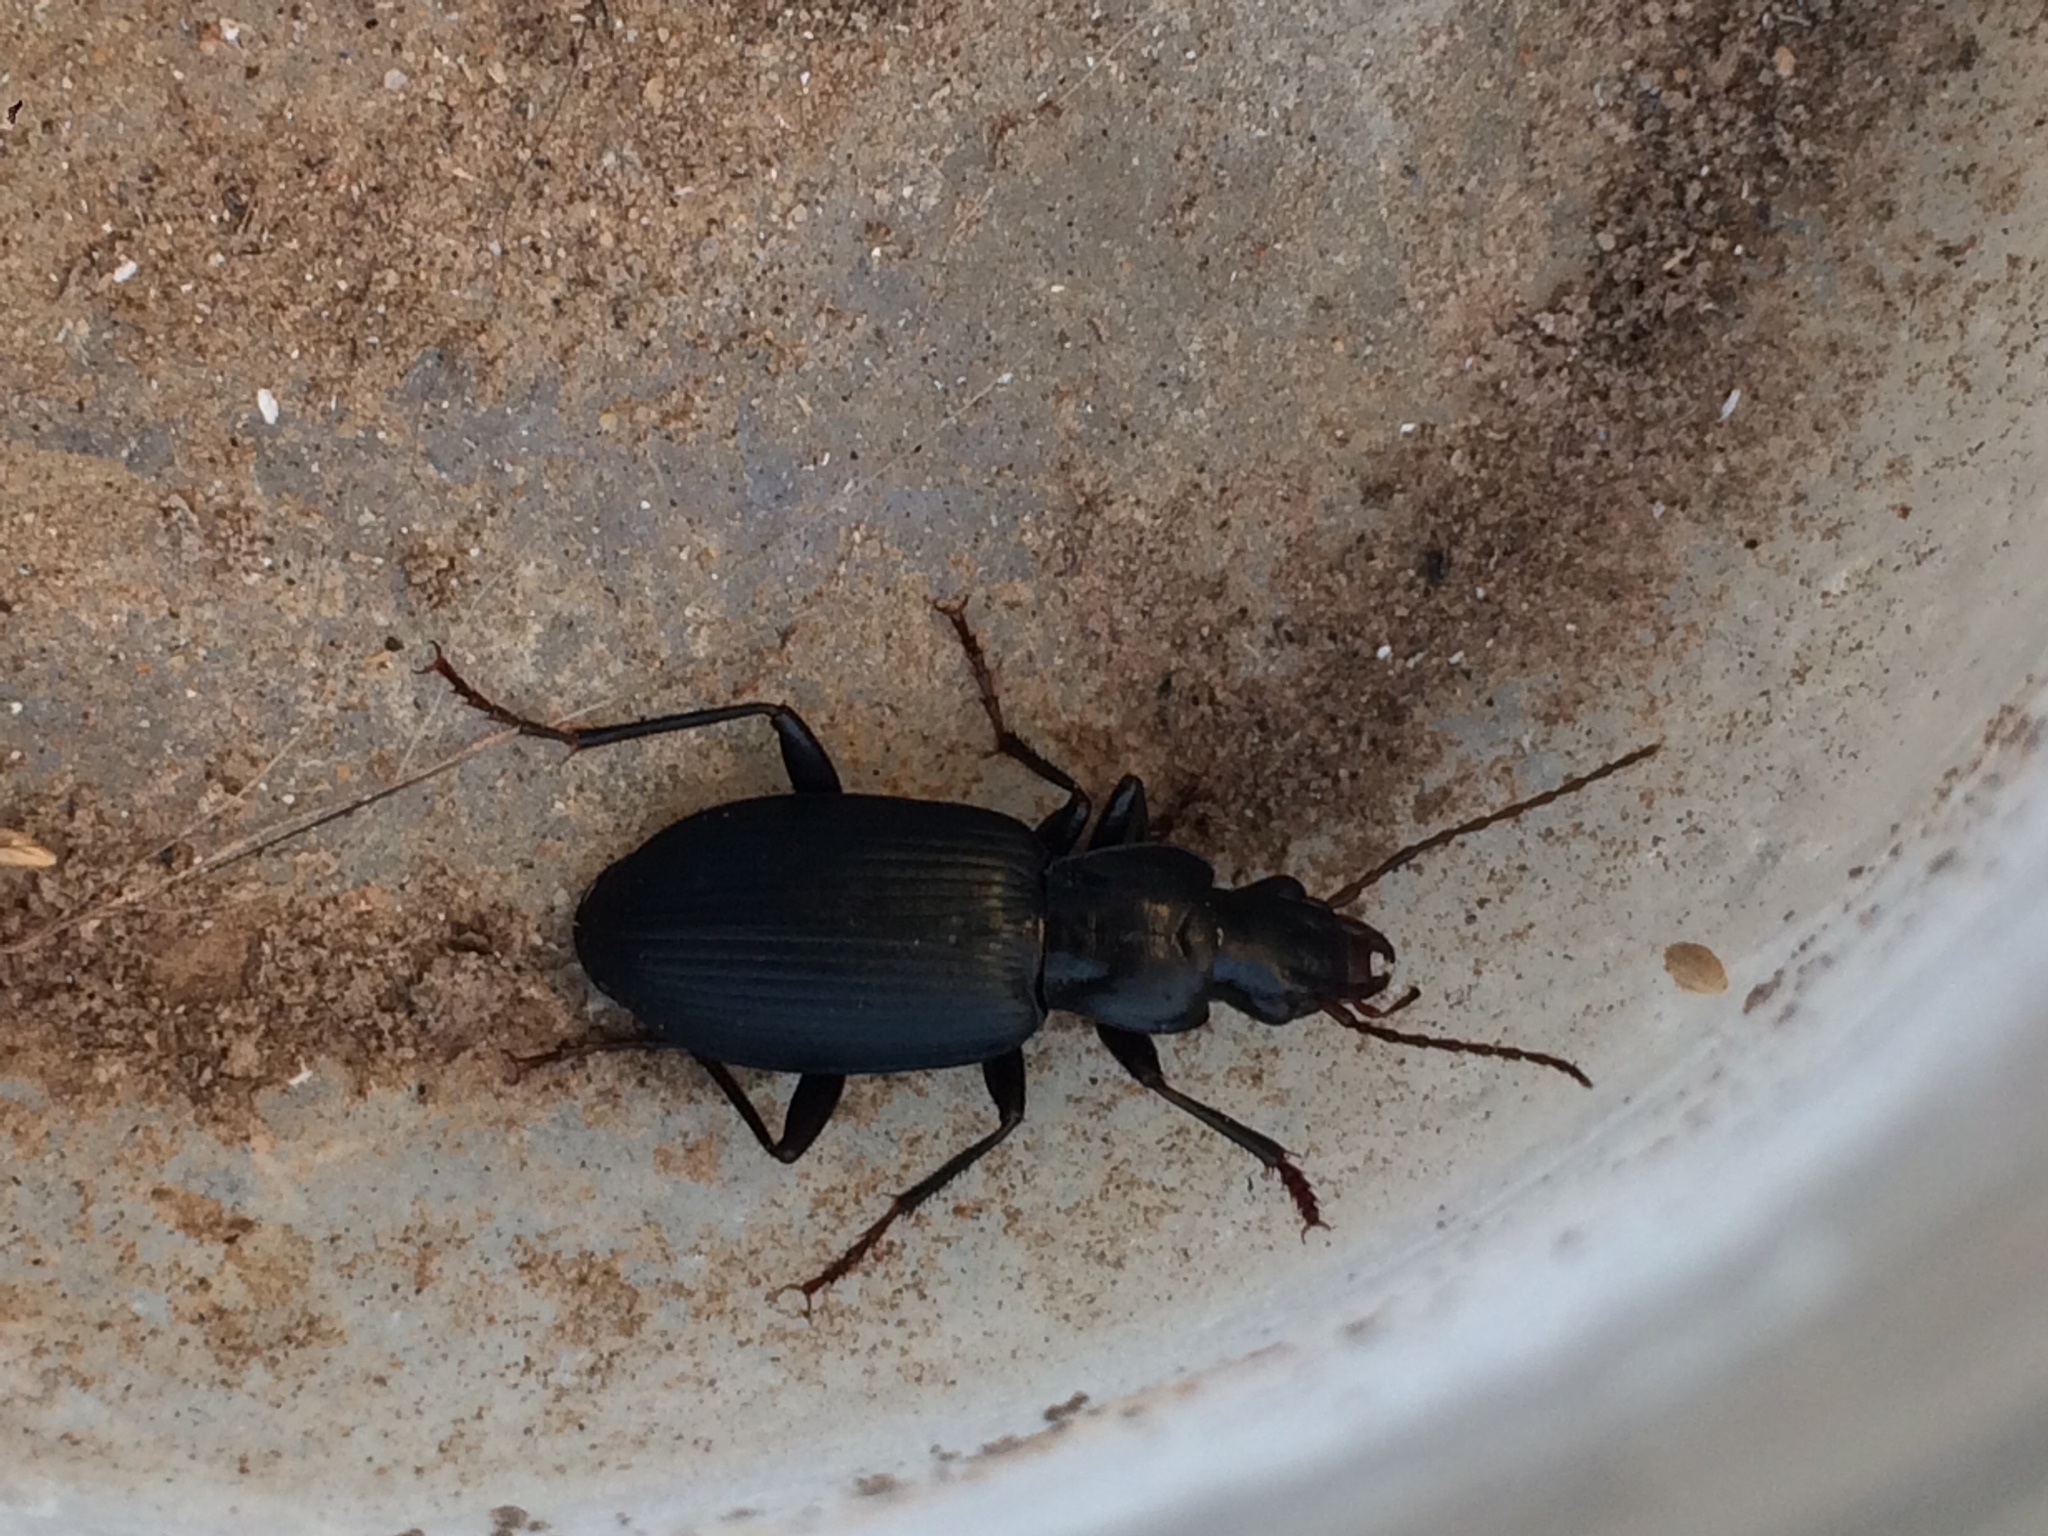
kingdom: Animalia
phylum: Arthropoda
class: Insecta
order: Coleoptera
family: Carabidae
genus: Laemostenus
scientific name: Laemostenus complanatus
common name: Cosmopolitan ground beetle
